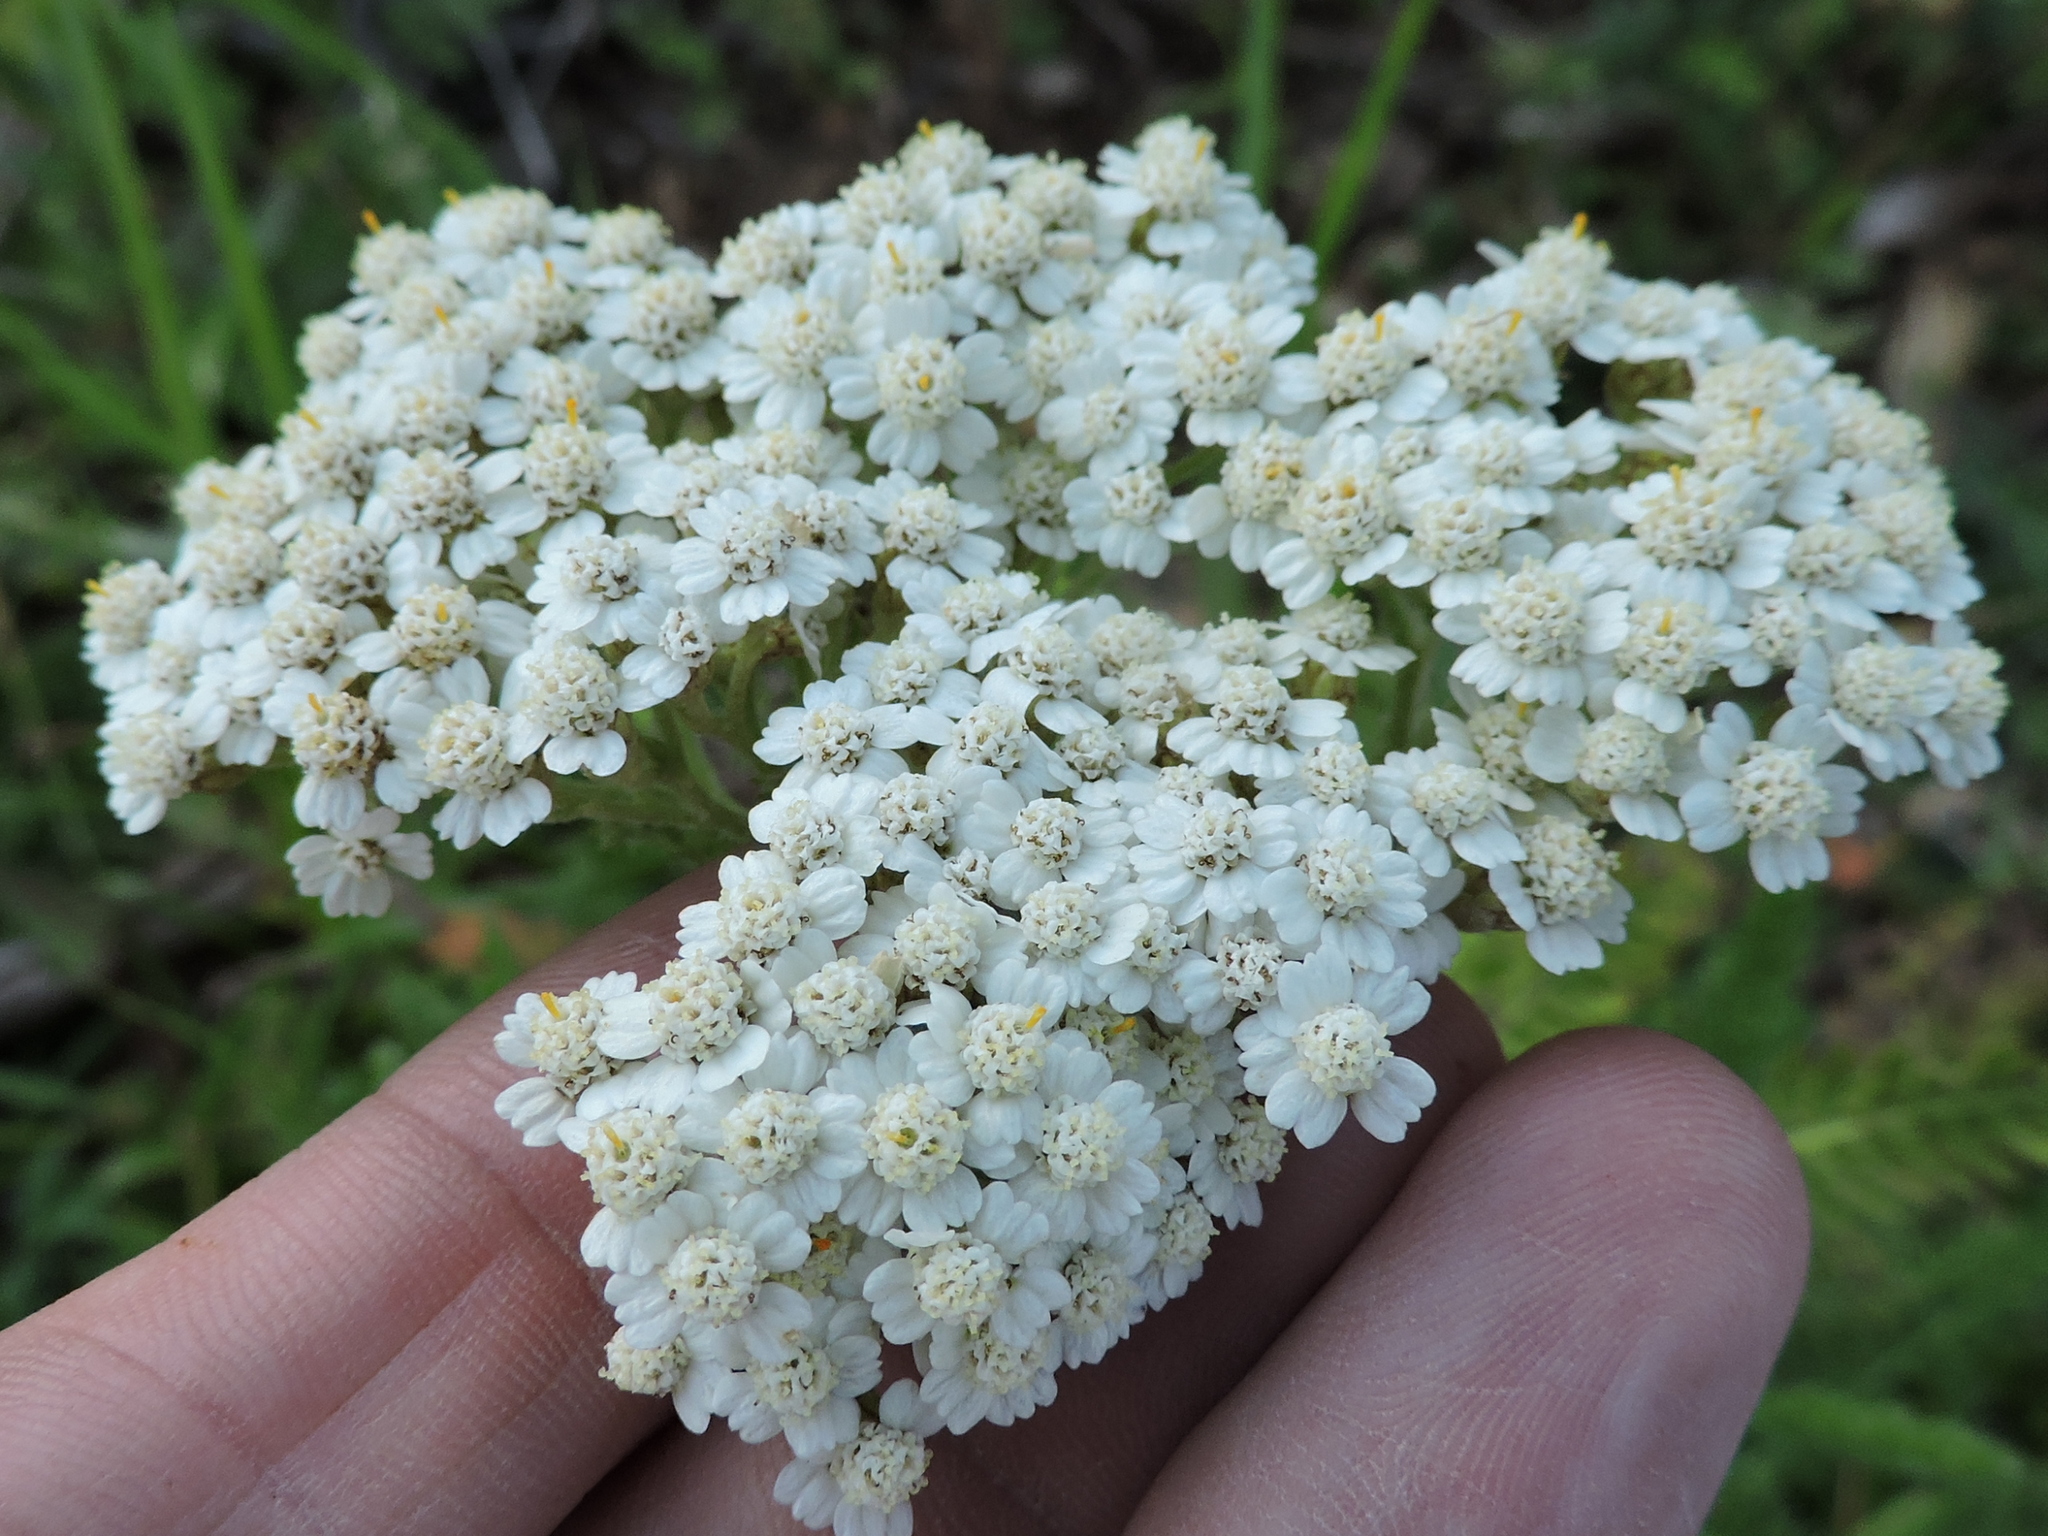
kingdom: Plantae
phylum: Tracheophyta
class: Magnoliopsida
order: Asterales
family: Asteraceae
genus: Achillea
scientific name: Achillea millefolium
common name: Yarrow
